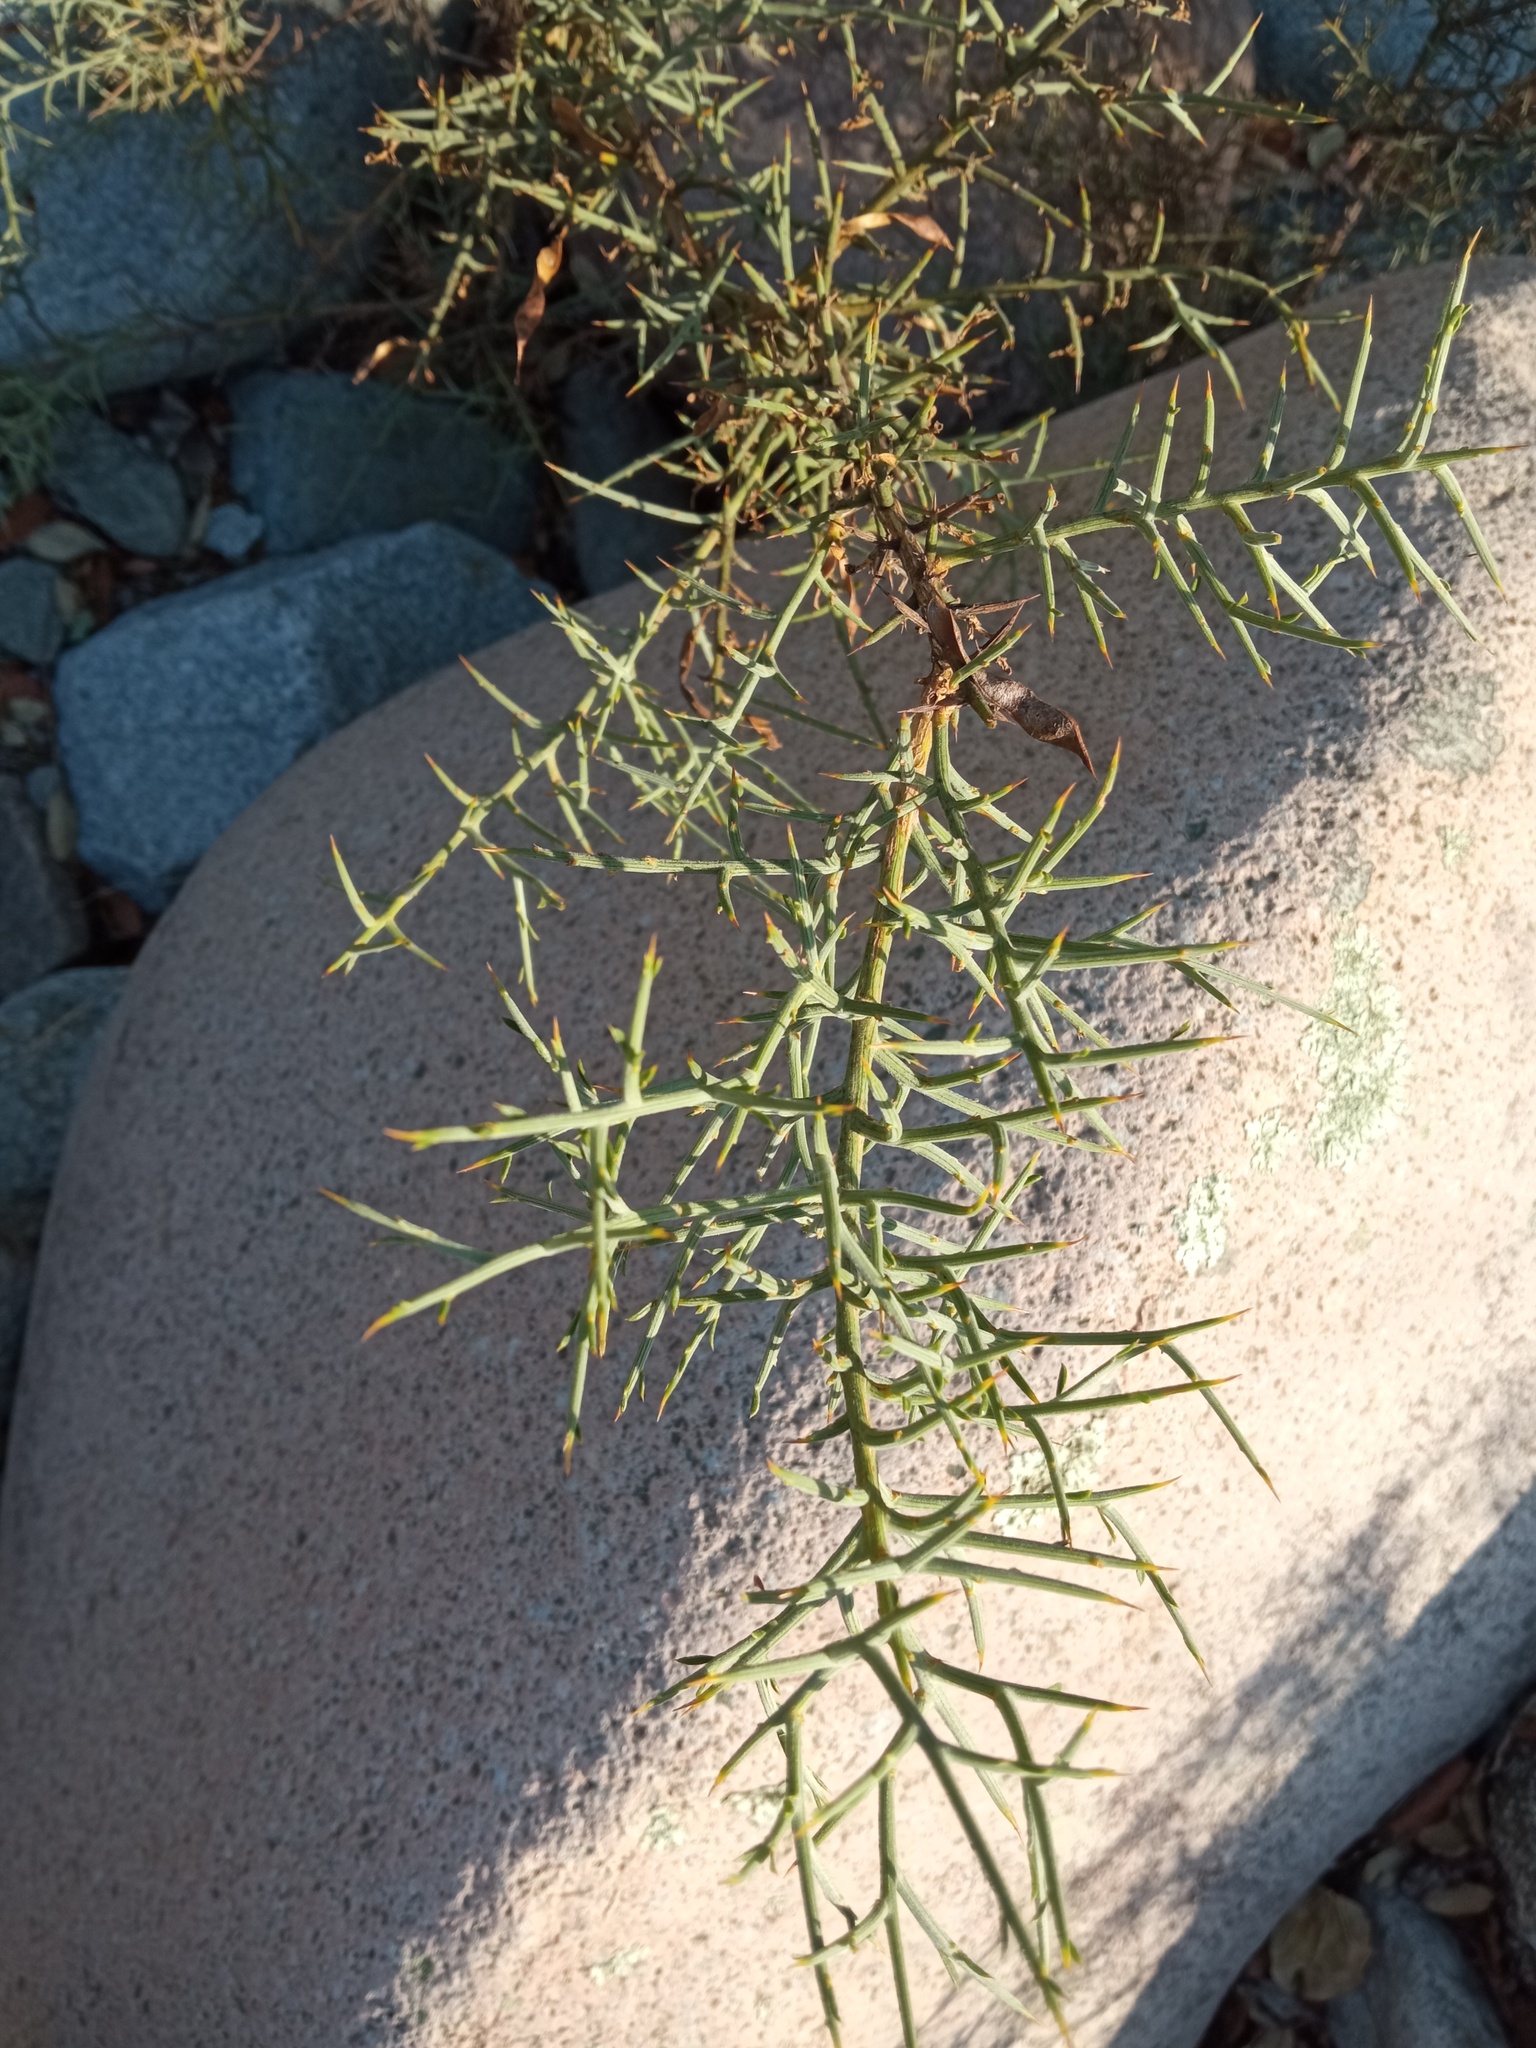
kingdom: Plantae
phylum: Tracheophyta
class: Magnoliopsida
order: Fabales
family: Fabaceae
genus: Genista
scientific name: Genista scorpius
